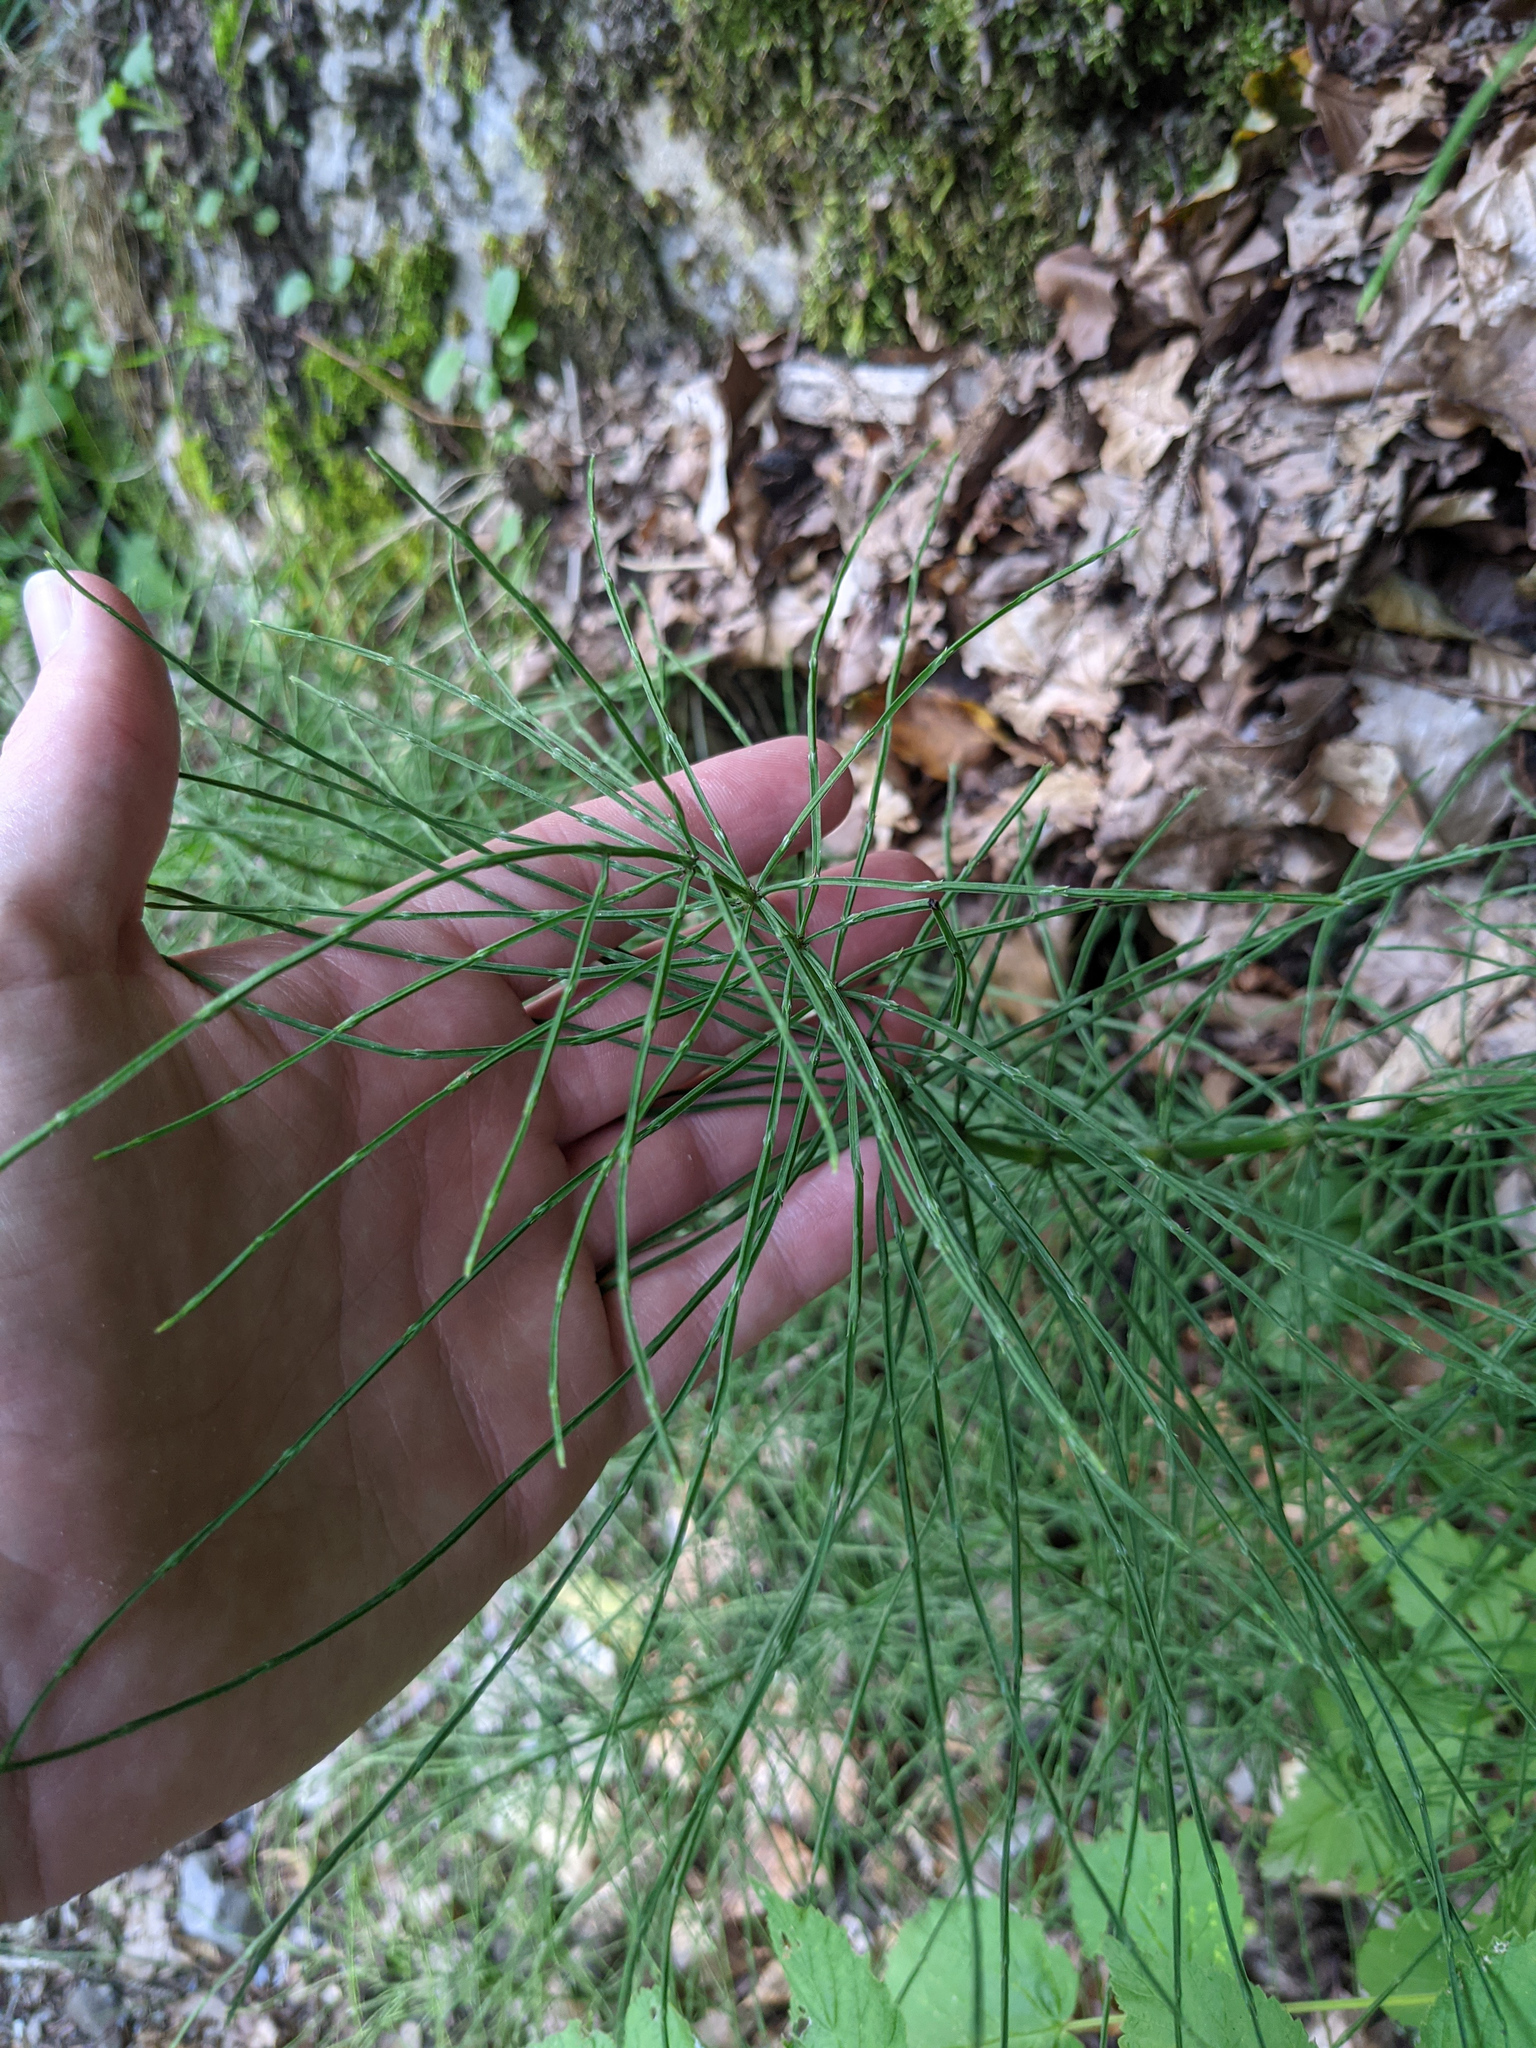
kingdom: Plantae
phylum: Tracheophyta
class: Polypodiopsida
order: Equisetales
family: Equisetaceae
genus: Equisetum
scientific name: Equisetum arvense
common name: Field horsetail
